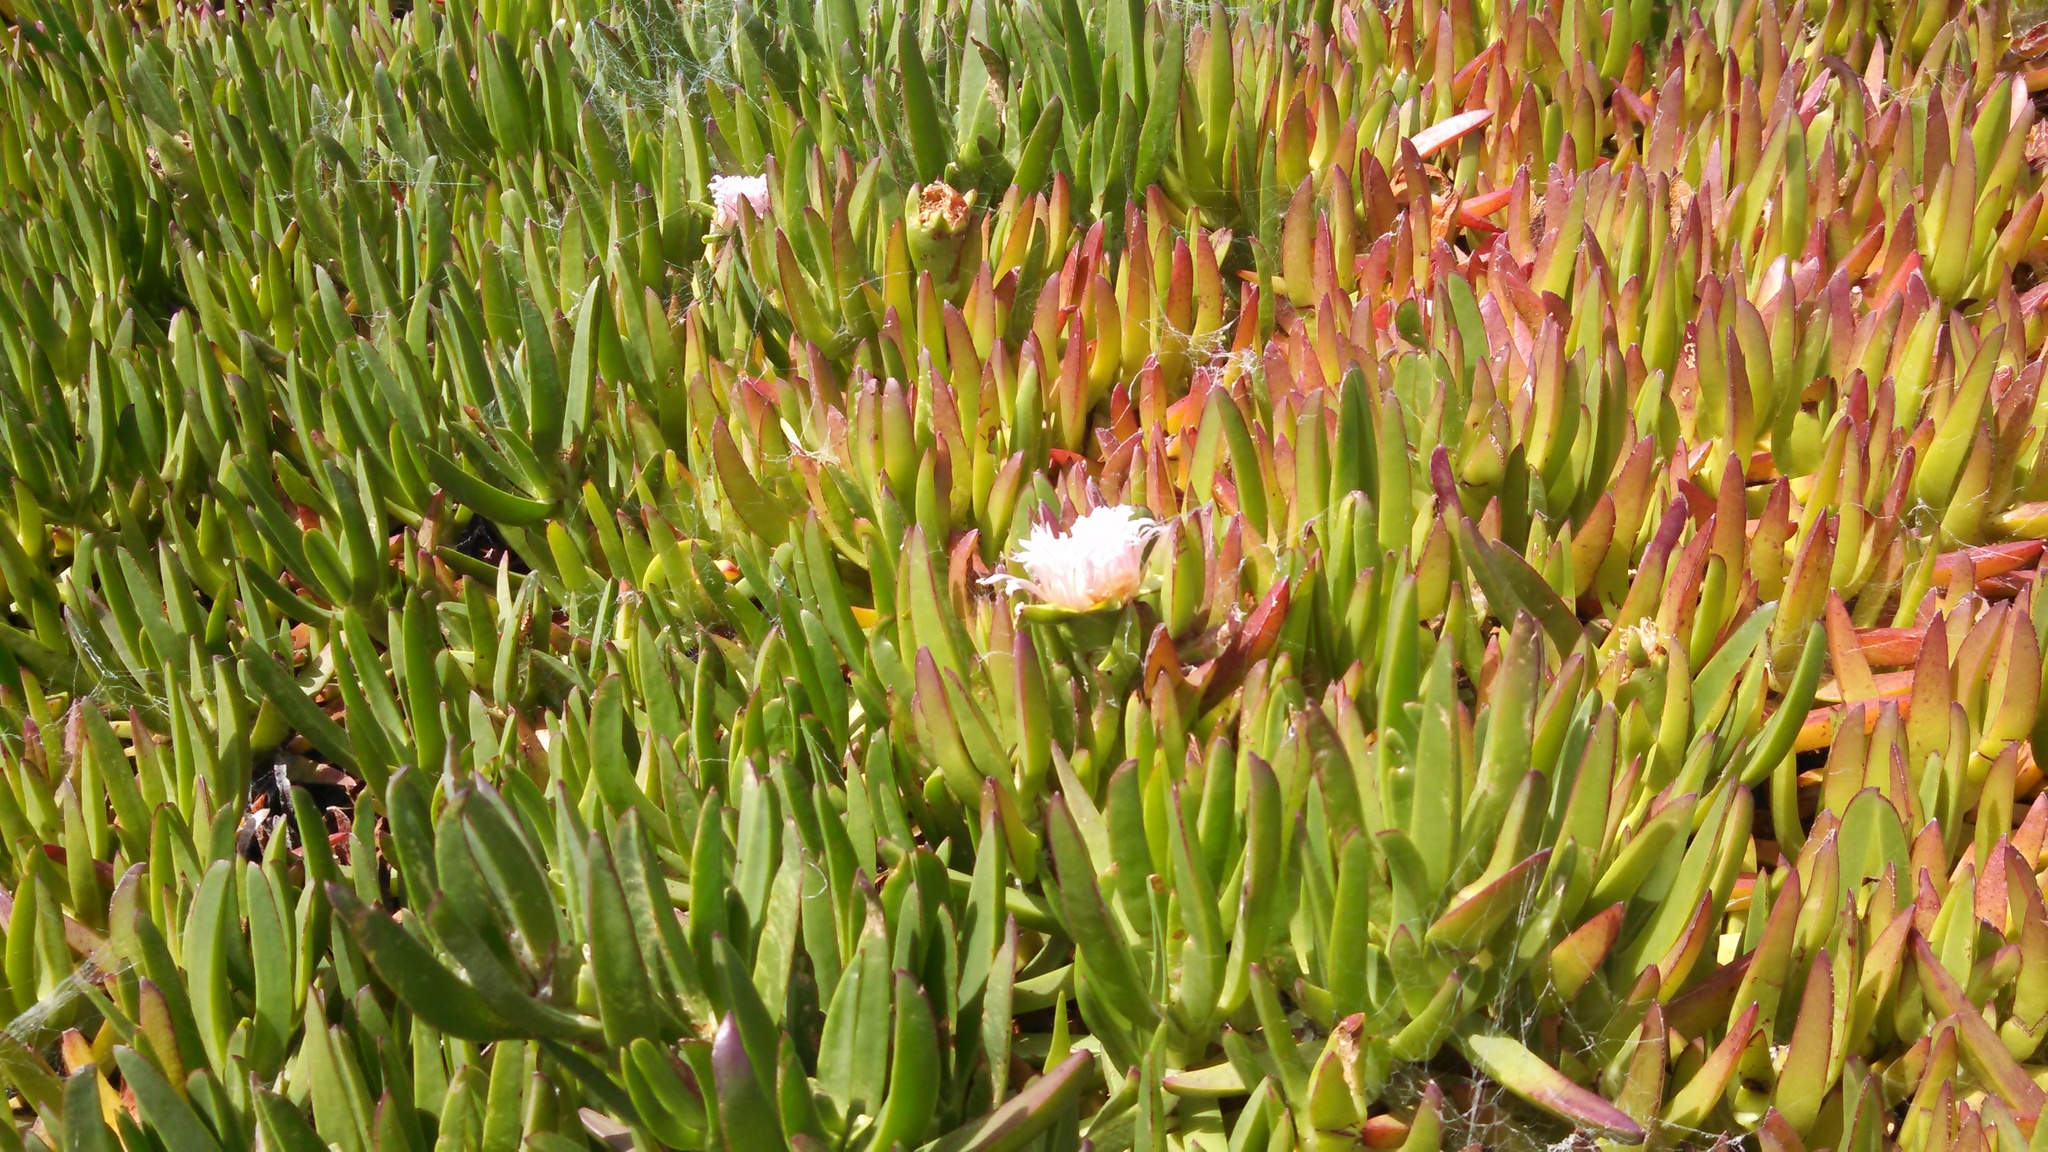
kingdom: Plantae
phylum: Tracheophyta
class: Magnoliopsida
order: Caryophyllales
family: Aizoaceae
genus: Carpobrotus
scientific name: Carpobrotus edulis
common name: Hottentot-fig
